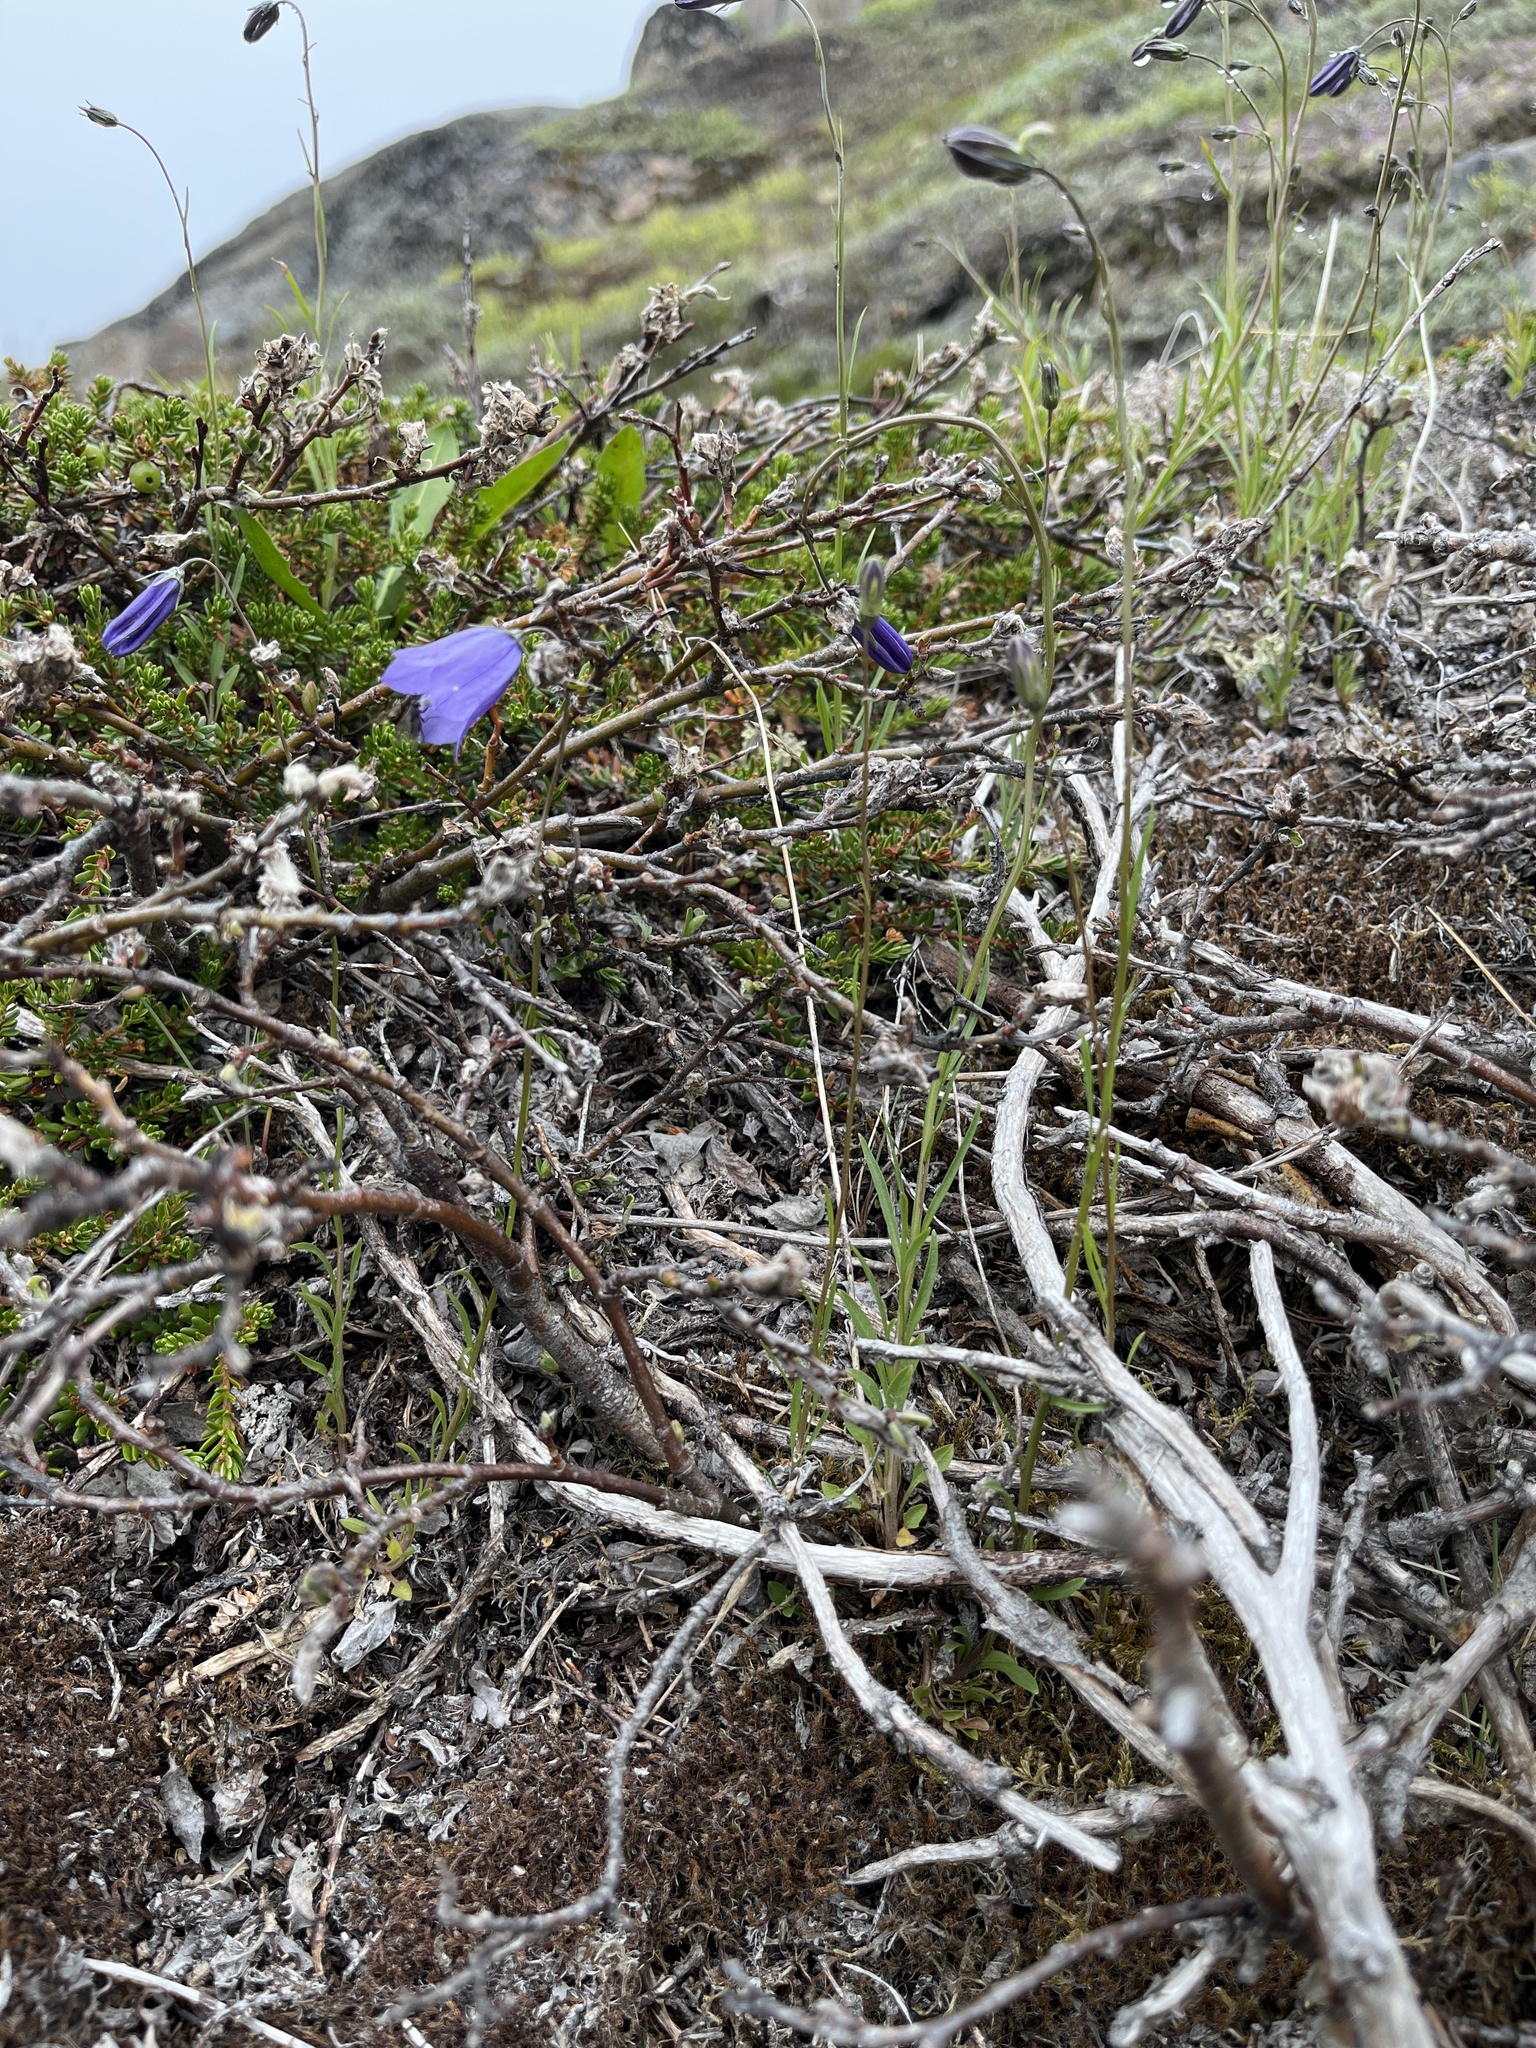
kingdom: Plantae
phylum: Tracheophyta
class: Magnoliopsida
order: Asterales
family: Campanulaceae
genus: Campanula
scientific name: Campanula giesekiana
